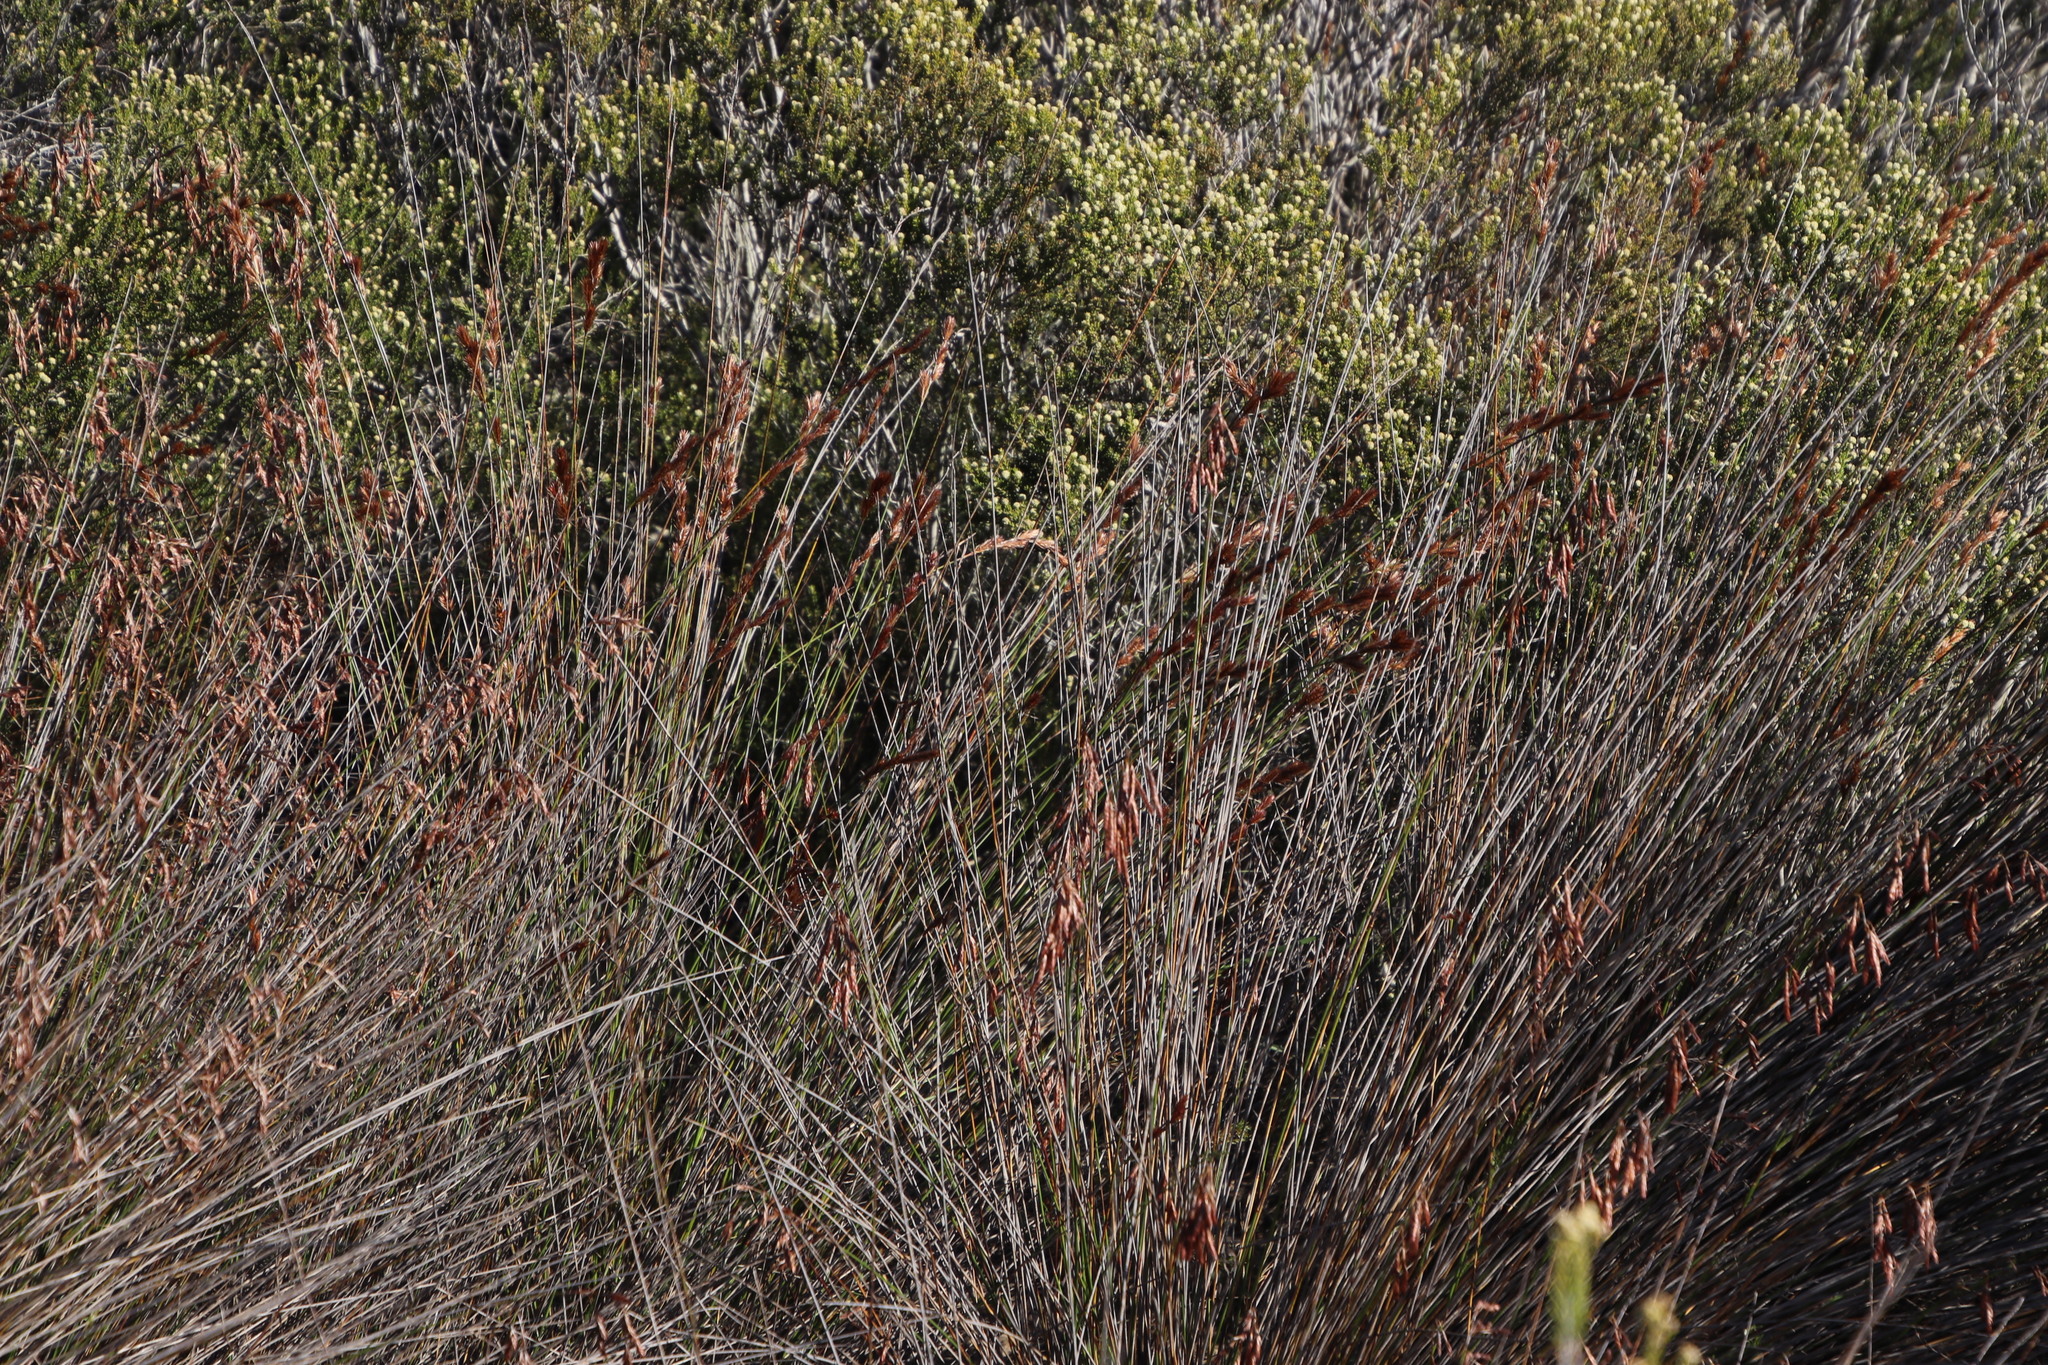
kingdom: Plantae
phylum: Tracheophyta
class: Liliopsida
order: Poales
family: Restionaceae
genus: Thamnochortus
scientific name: Thamnochortus bachmannii
